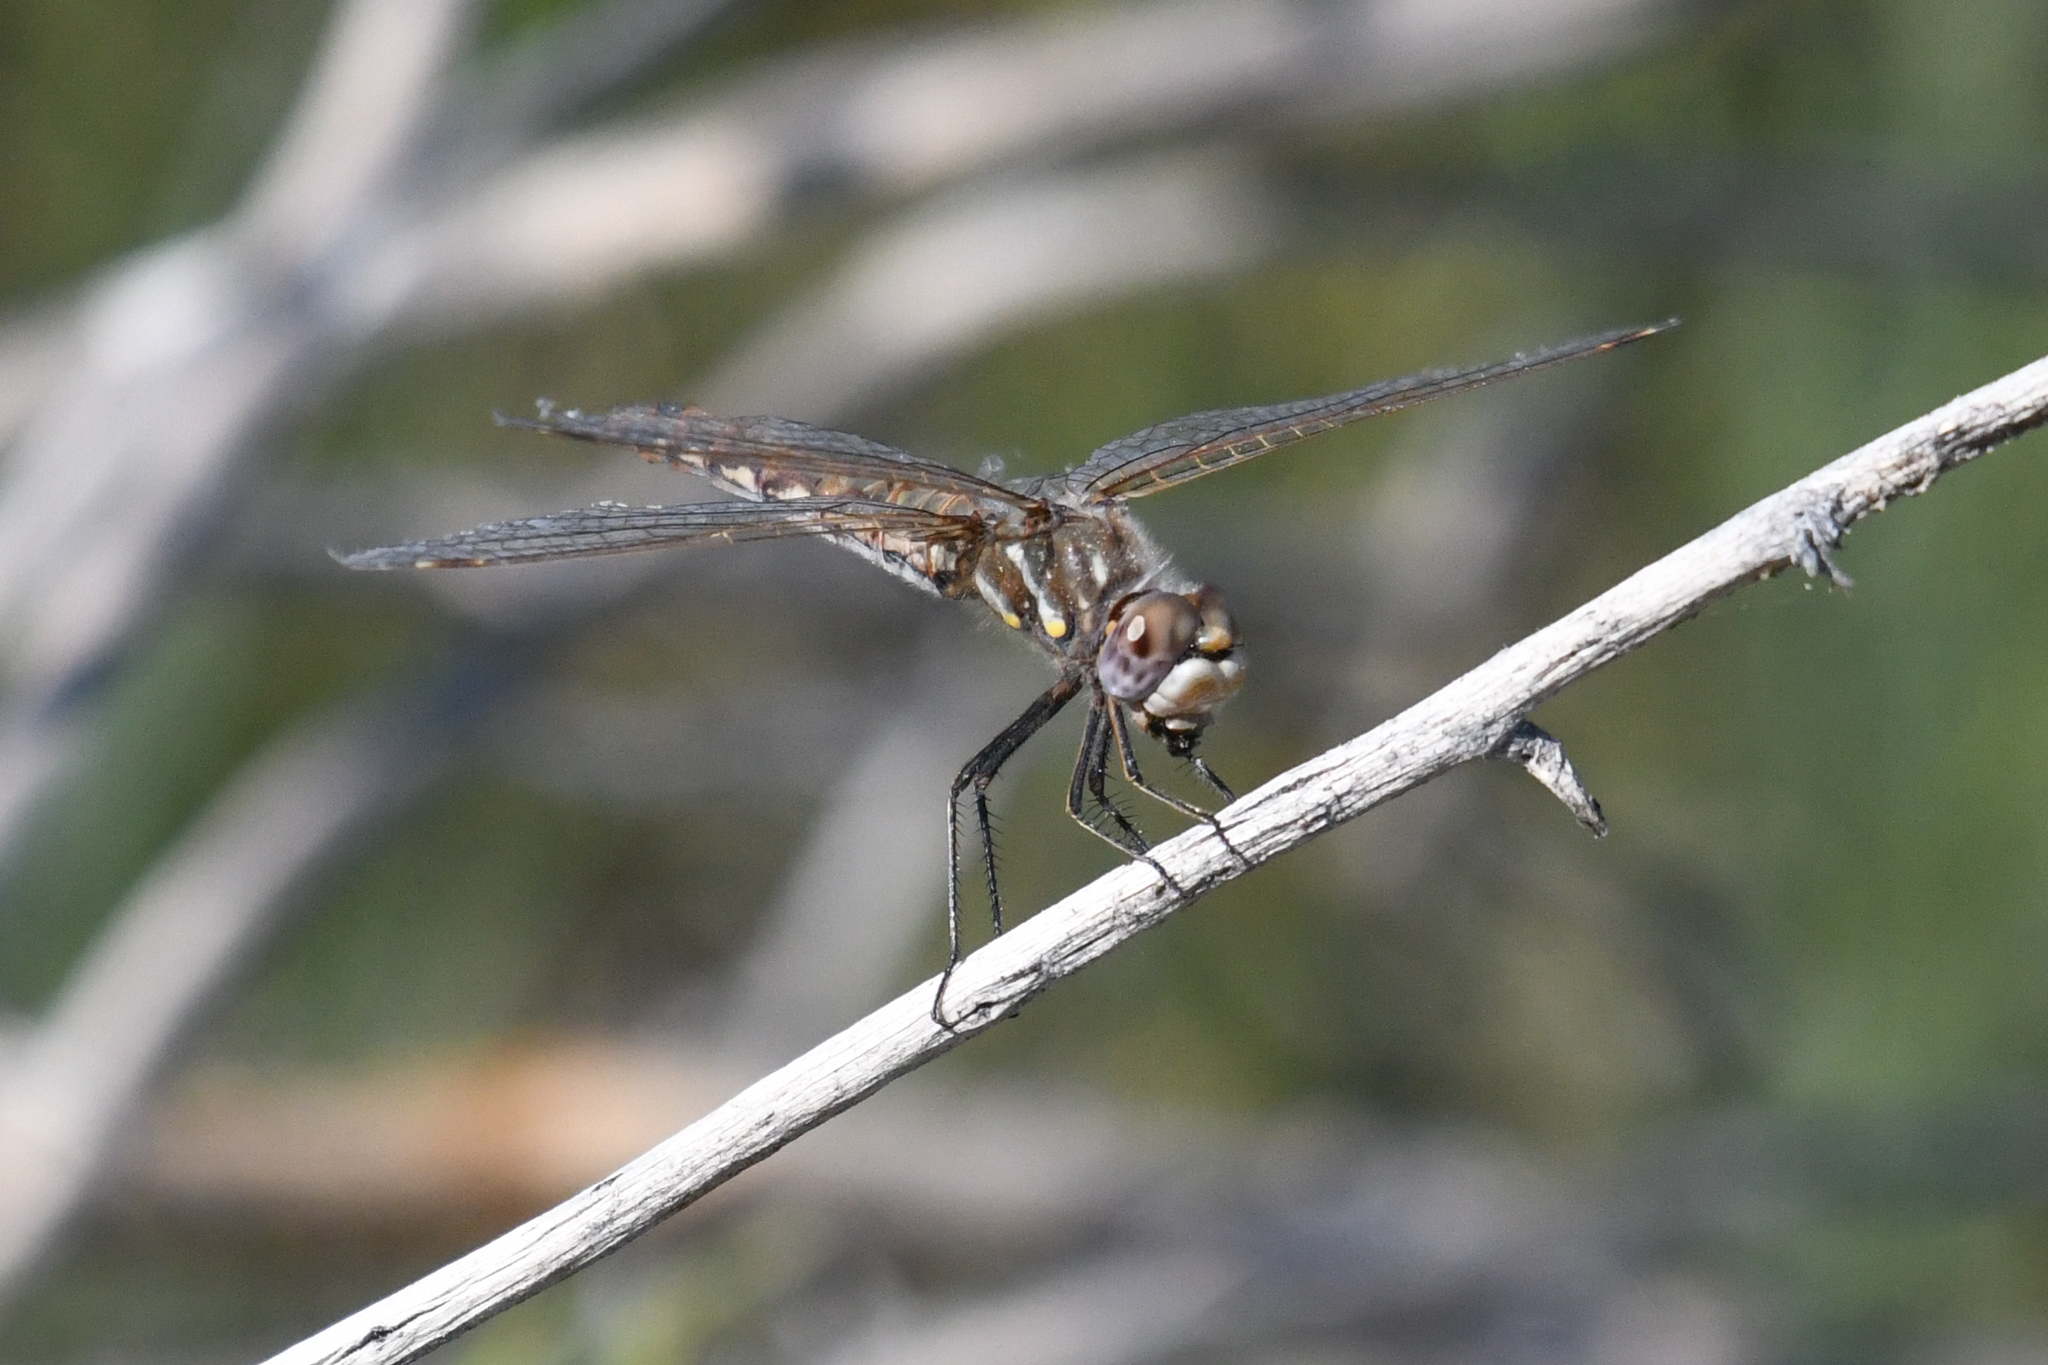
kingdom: Animalia
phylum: Arthropoda
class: Insecta
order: Odonata
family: Libellulidae
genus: Sympetrum
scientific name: Sympetrum corruptum
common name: Variegated meadowhawk
